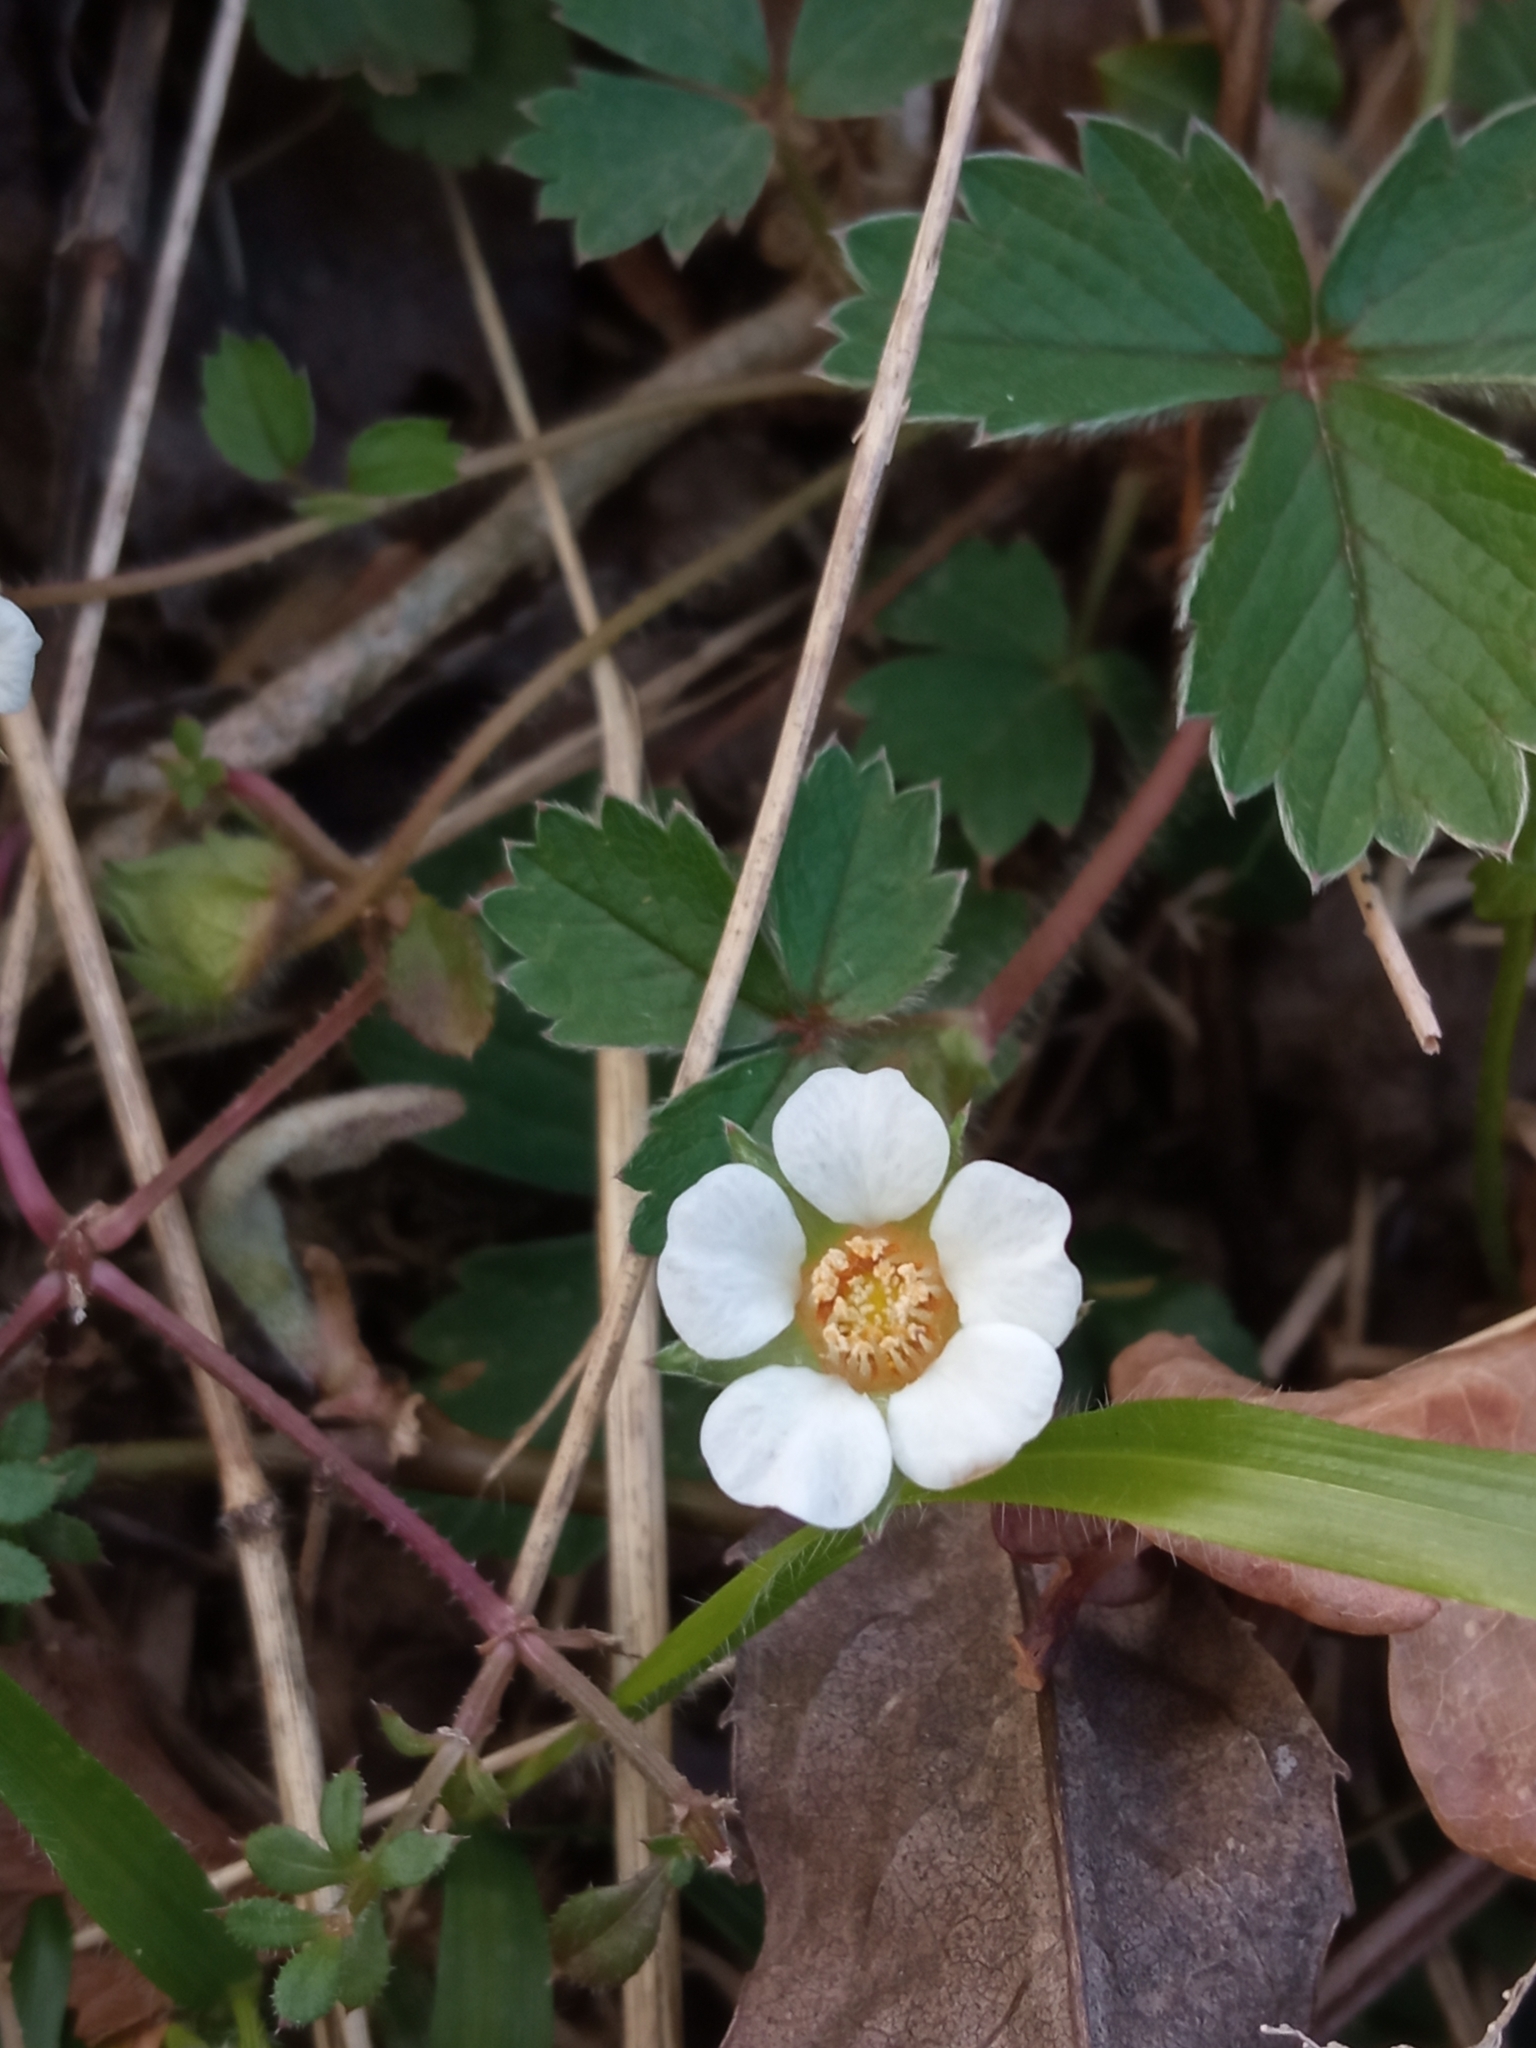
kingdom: Plantae
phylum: Tracheophyta
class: Magnoliopsida
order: Rosales
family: Rosaceae
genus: Potentilla
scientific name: Potentilla sterilis
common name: Barren strawberry
